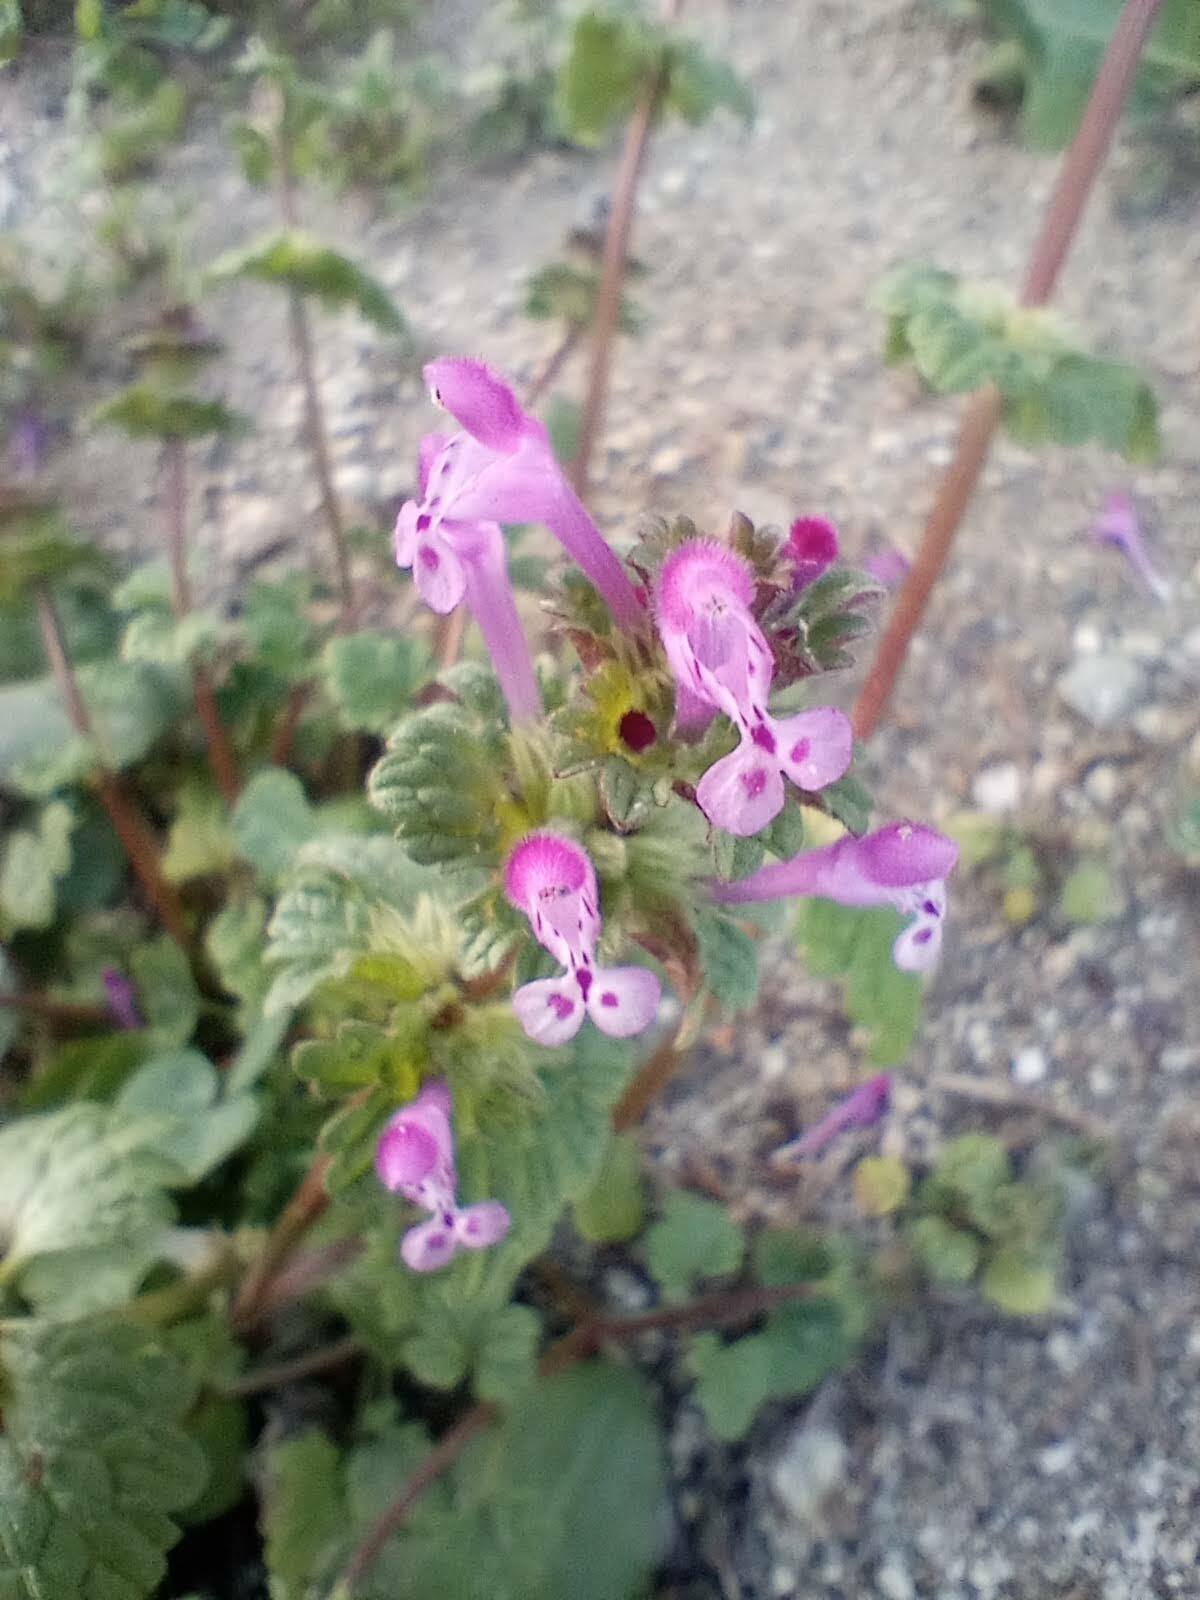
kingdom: Plantae
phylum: Tracheophyta
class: Magnoliopsida
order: Lamiales
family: Lamiaceae
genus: Lamium
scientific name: Lamium amplexicaule
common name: Henbit dead-nettle
